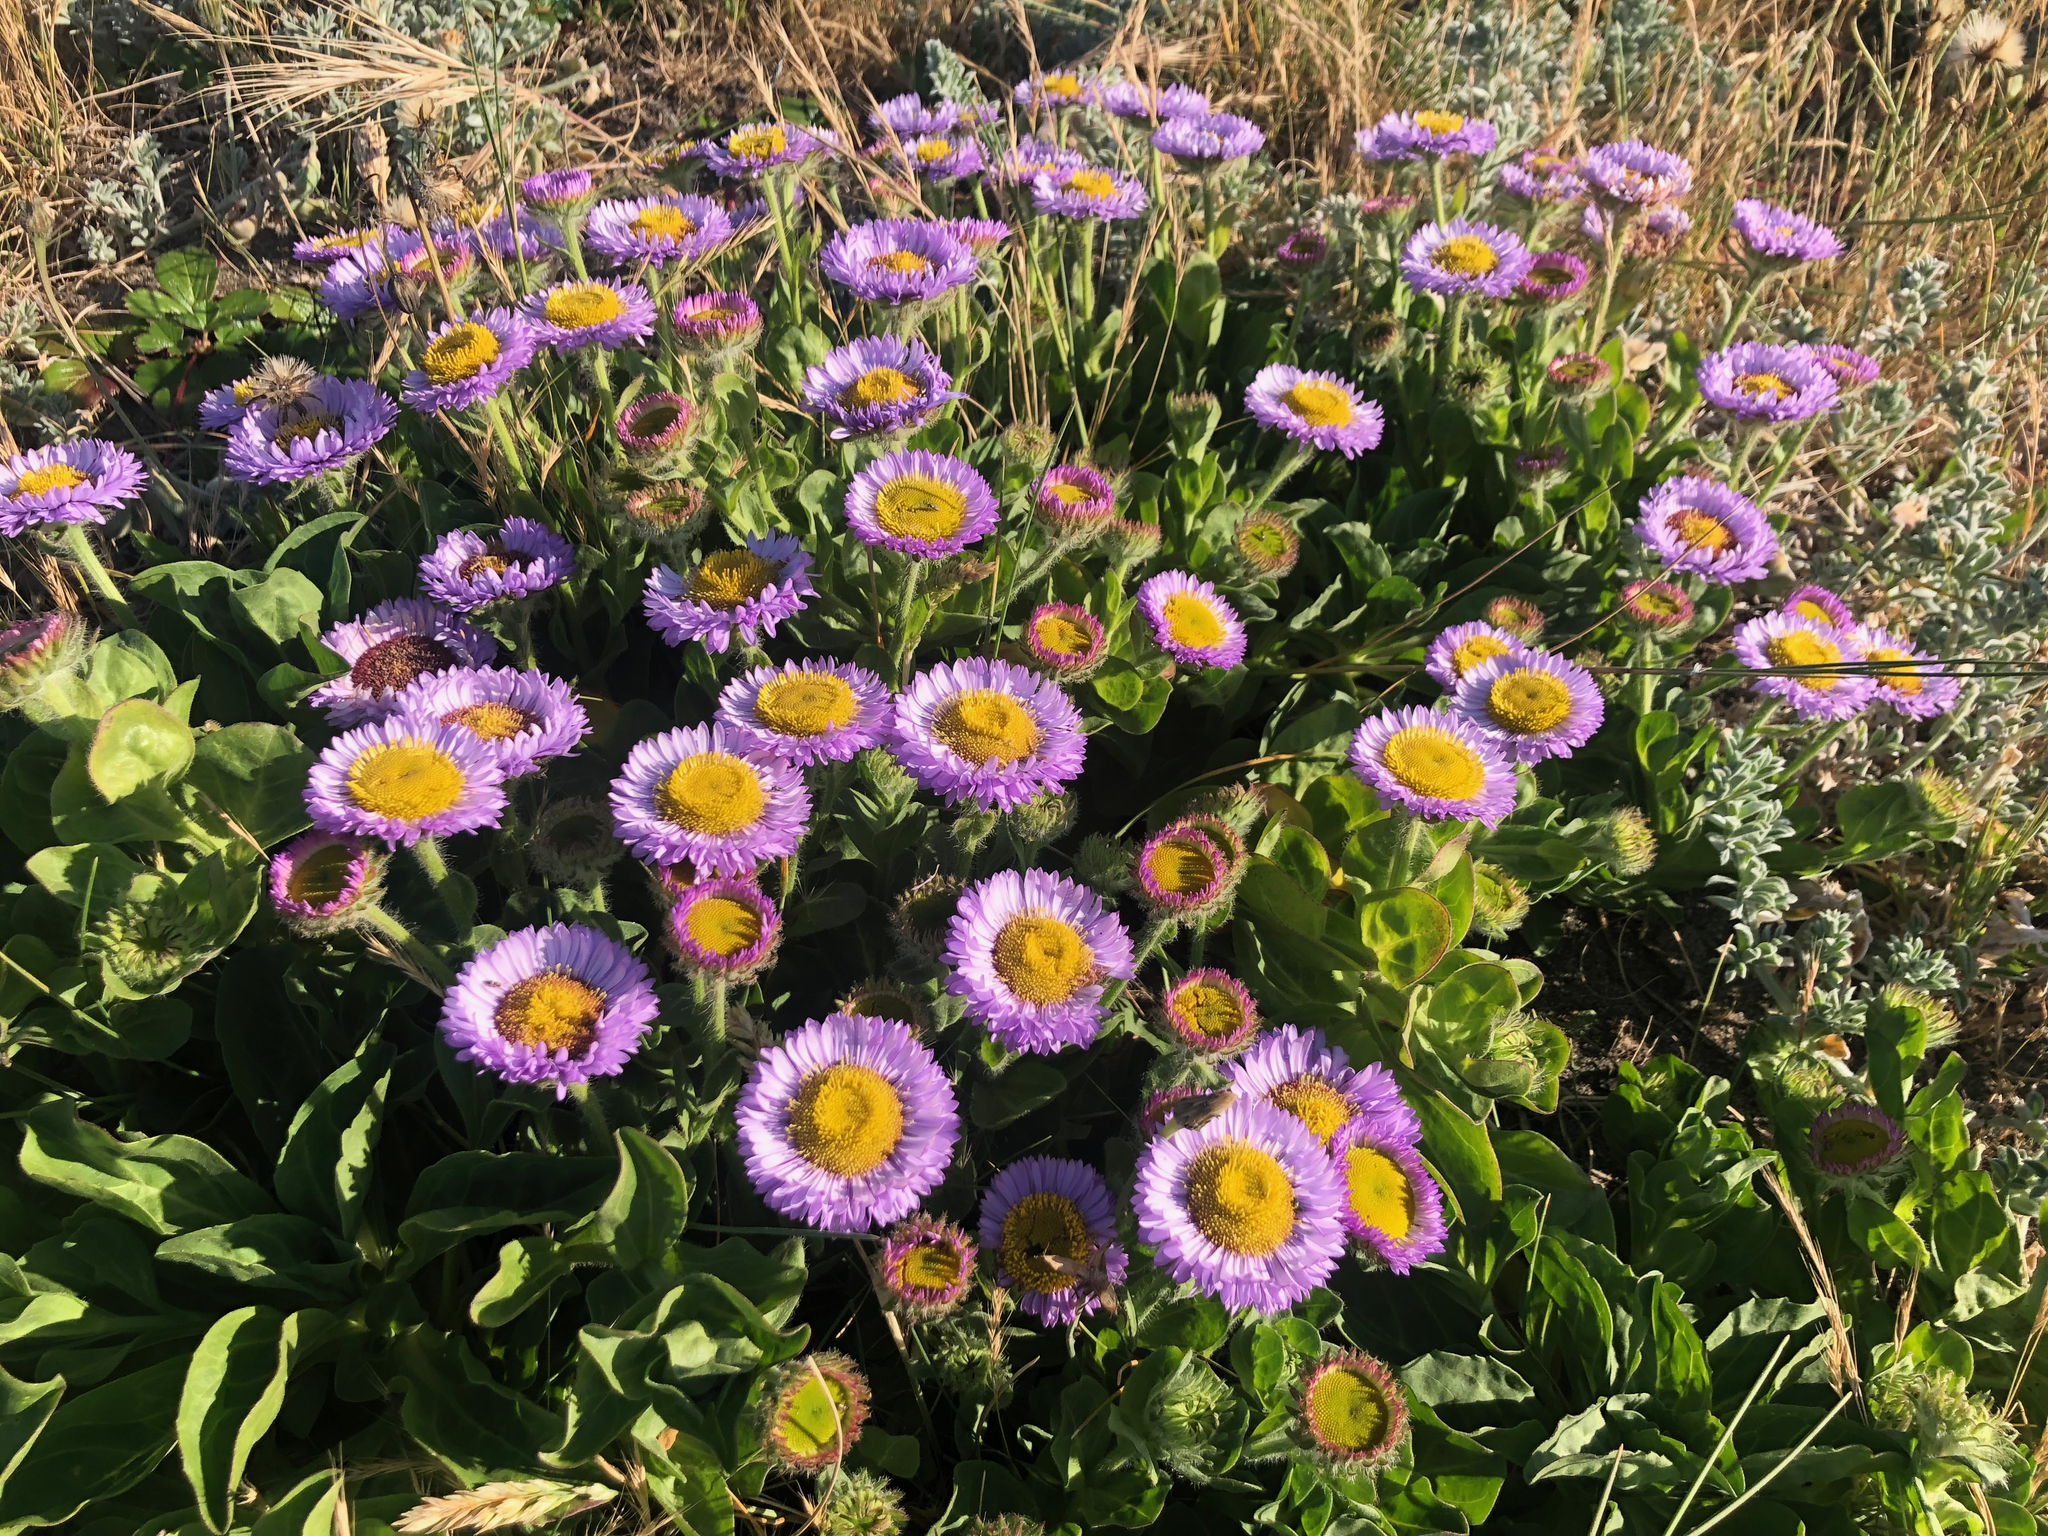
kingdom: Plantae
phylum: Tracheophyta
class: Magnoliopsida
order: Asterales
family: Asteraceae
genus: Erigeron
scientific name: Erigeron glaucus
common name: Seaside daisy
